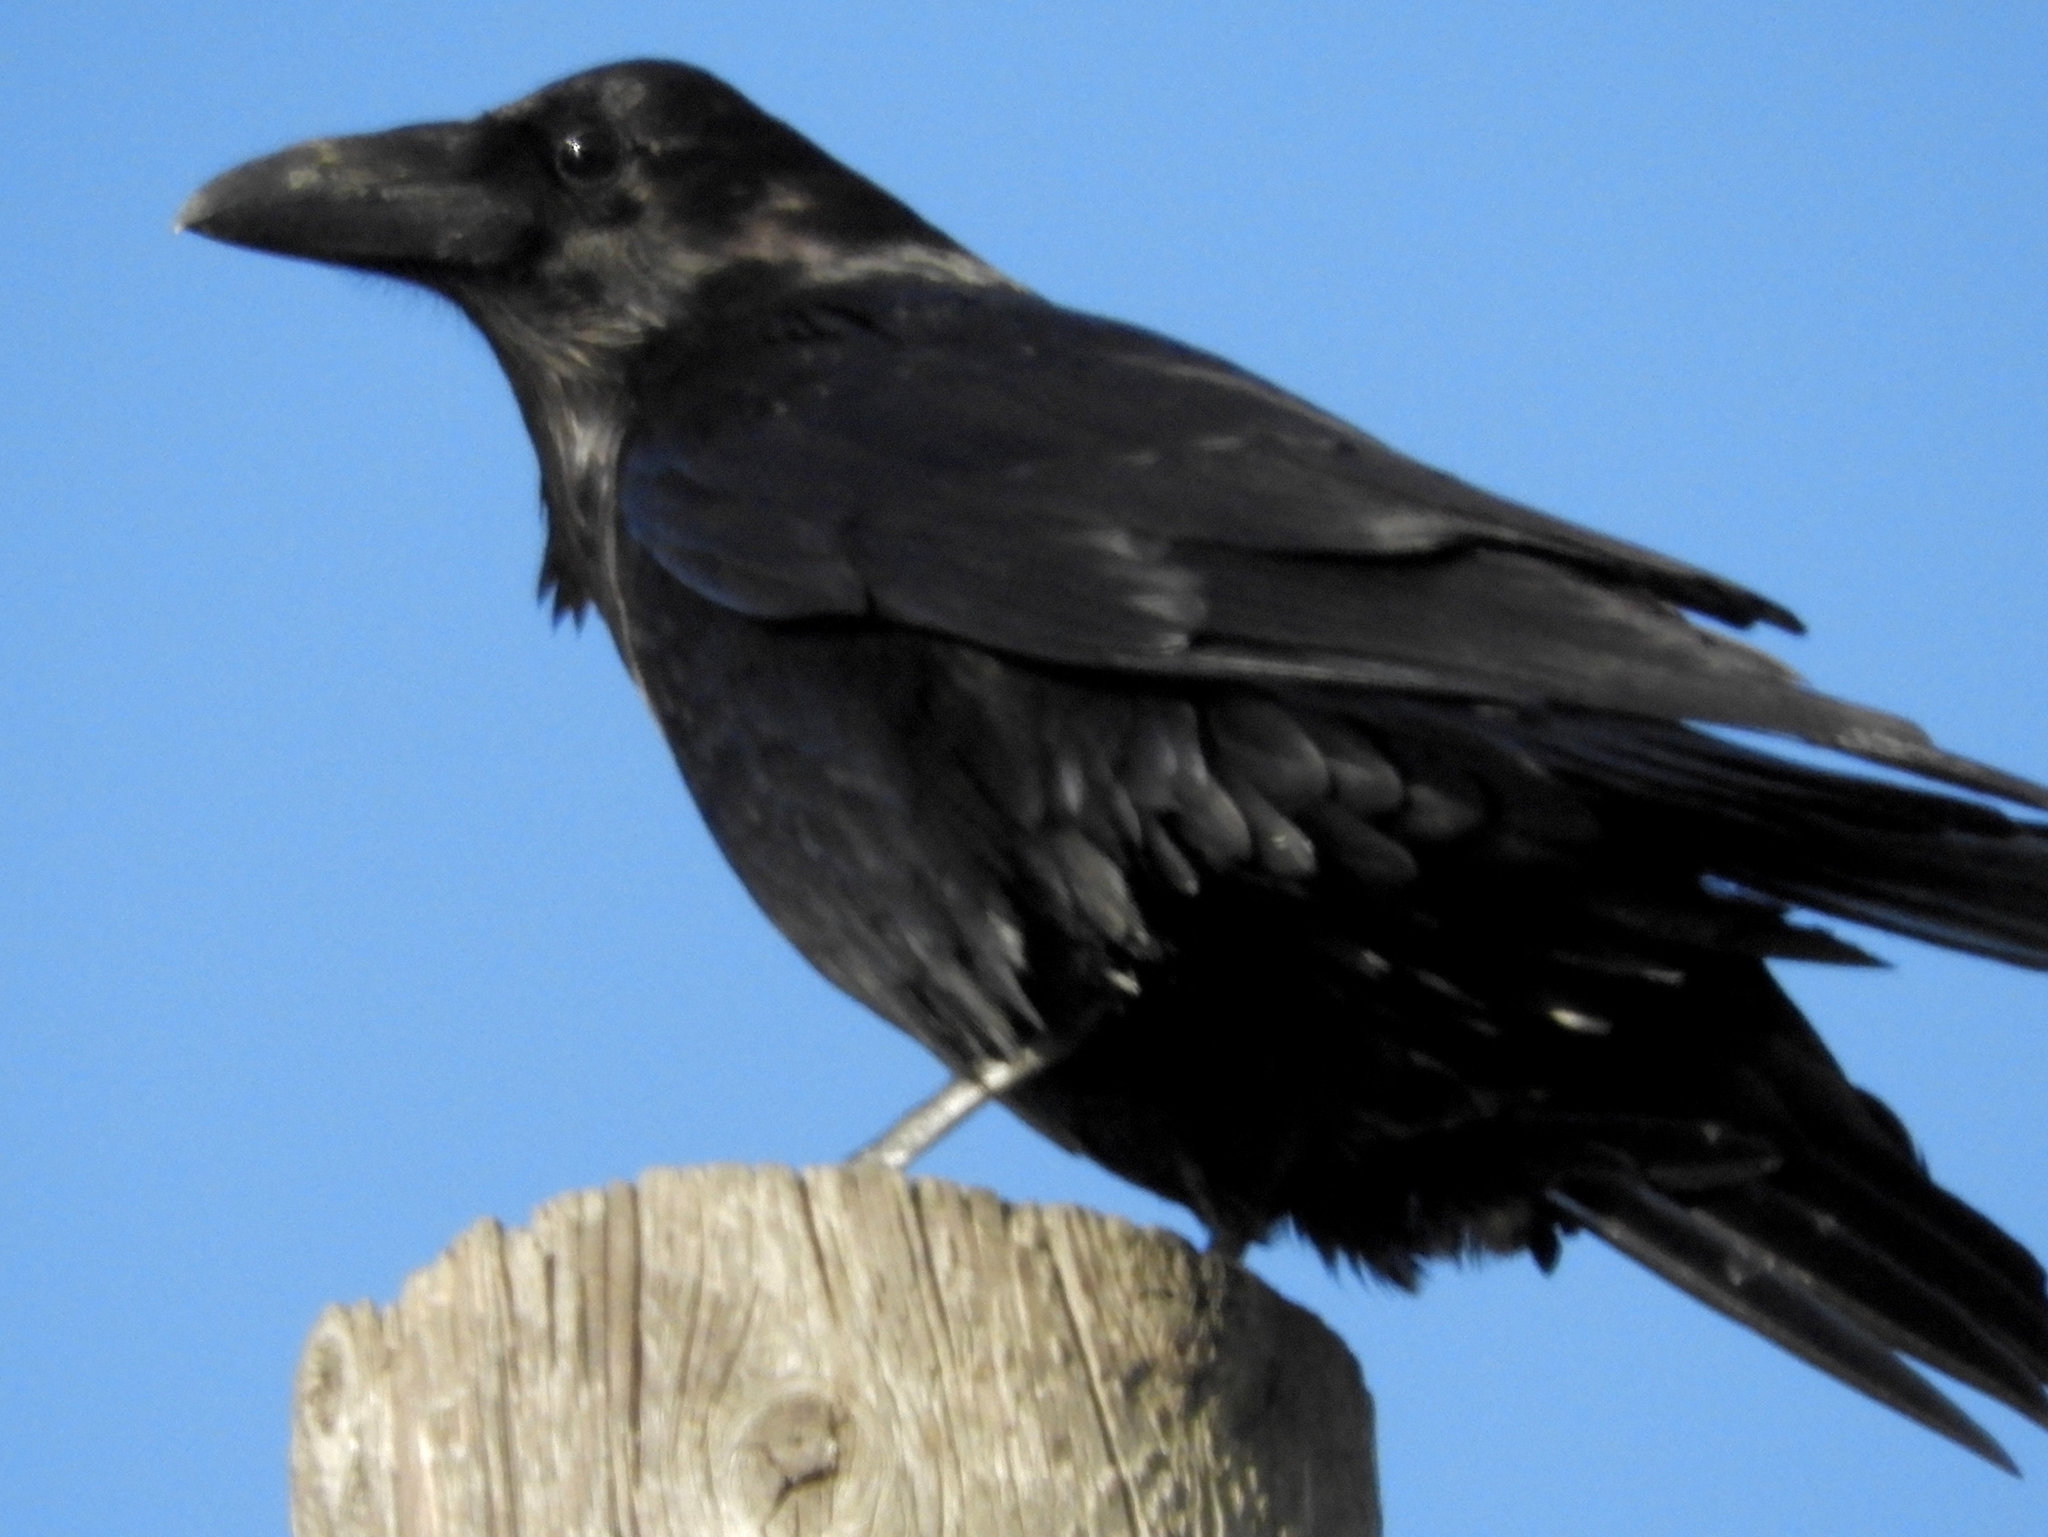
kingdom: Animalia
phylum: Chordata
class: Aves
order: Passeriformes
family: Corvidae
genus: Corvus
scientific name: Corvus corax
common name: Common raven
